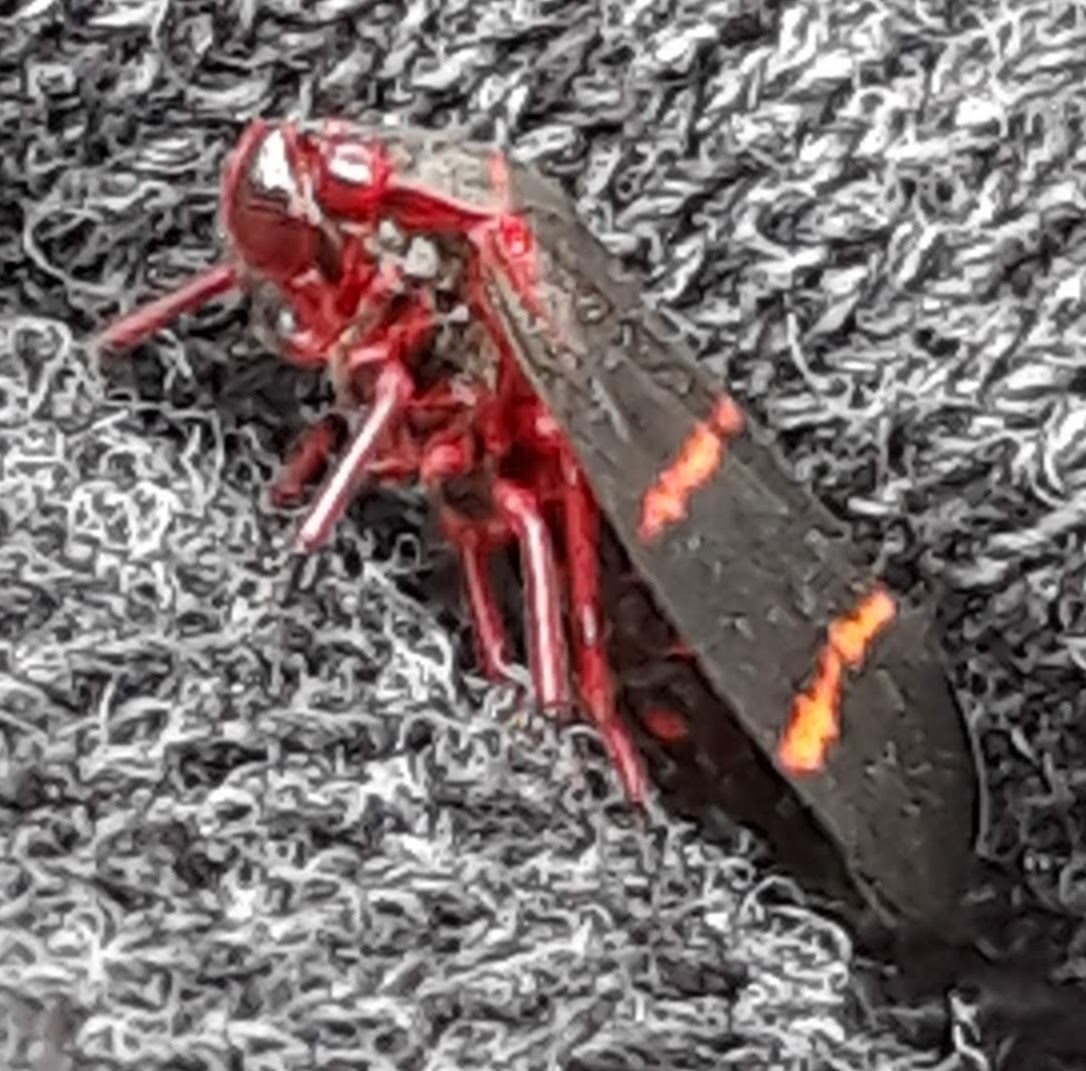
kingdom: Animalia
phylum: Arthropoda
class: Insecta
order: Hemiptera
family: Cercopidae
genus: Prosapia
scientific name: Prosapia bicincta
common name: Twolined spittlebug
